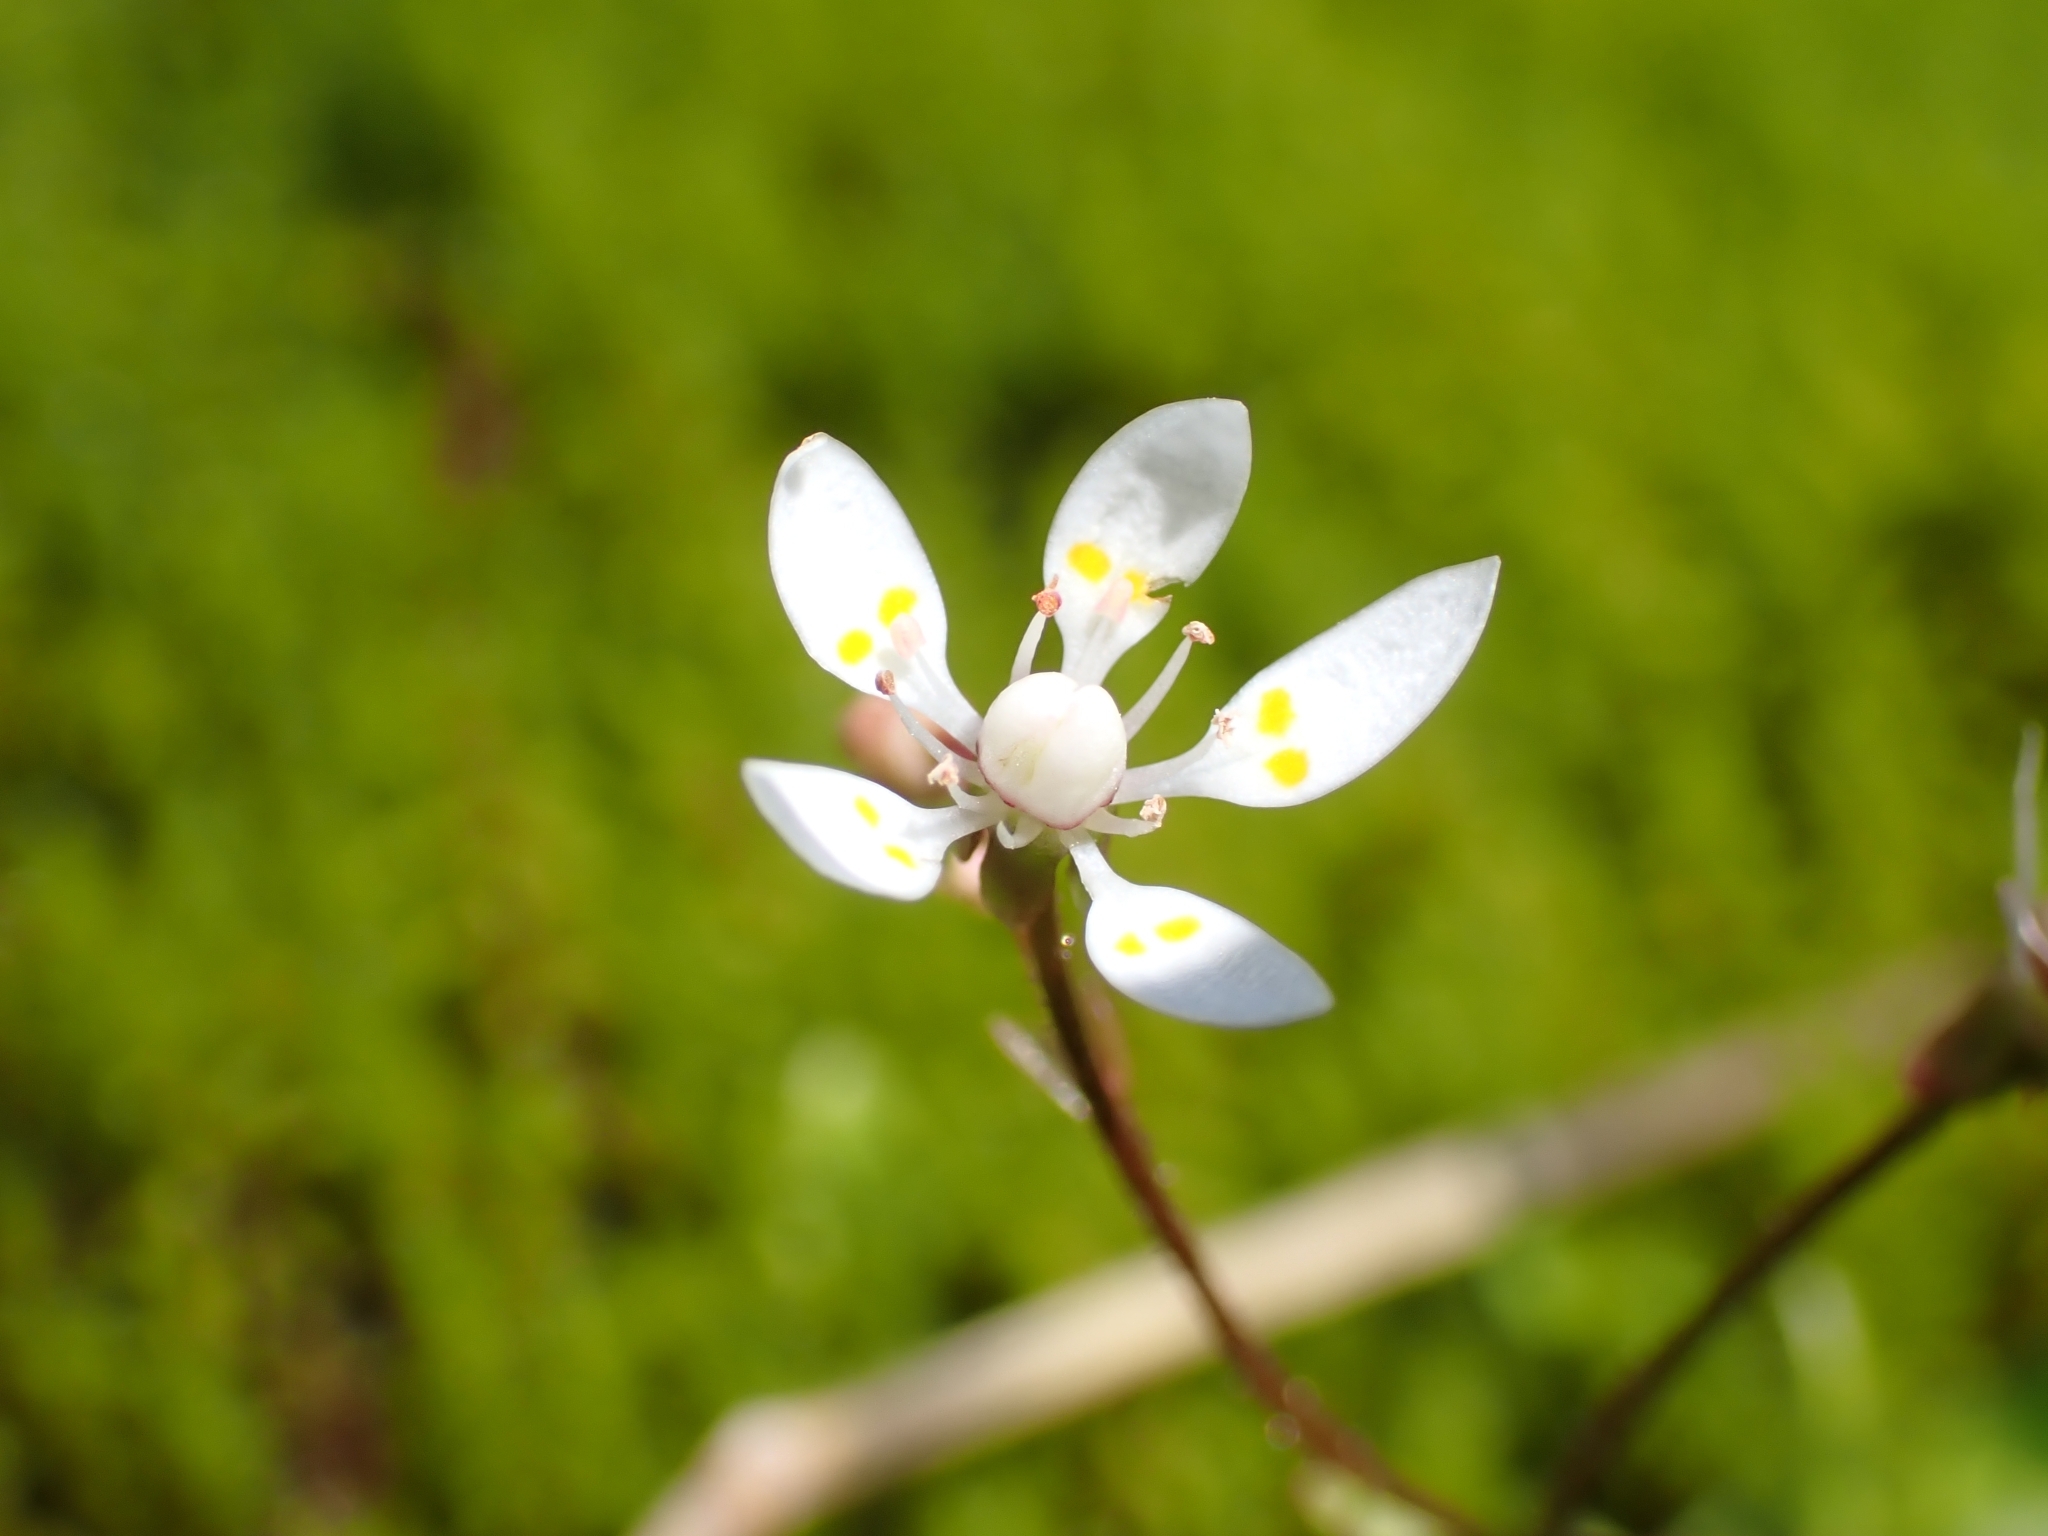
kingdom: Plantae
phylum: Tracheophyta
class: Magnoliopsida
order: Saxifragales
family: Saxifragaceae
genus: Micranthes
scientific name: Micranthes stellaris
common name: Starry saxifrage
